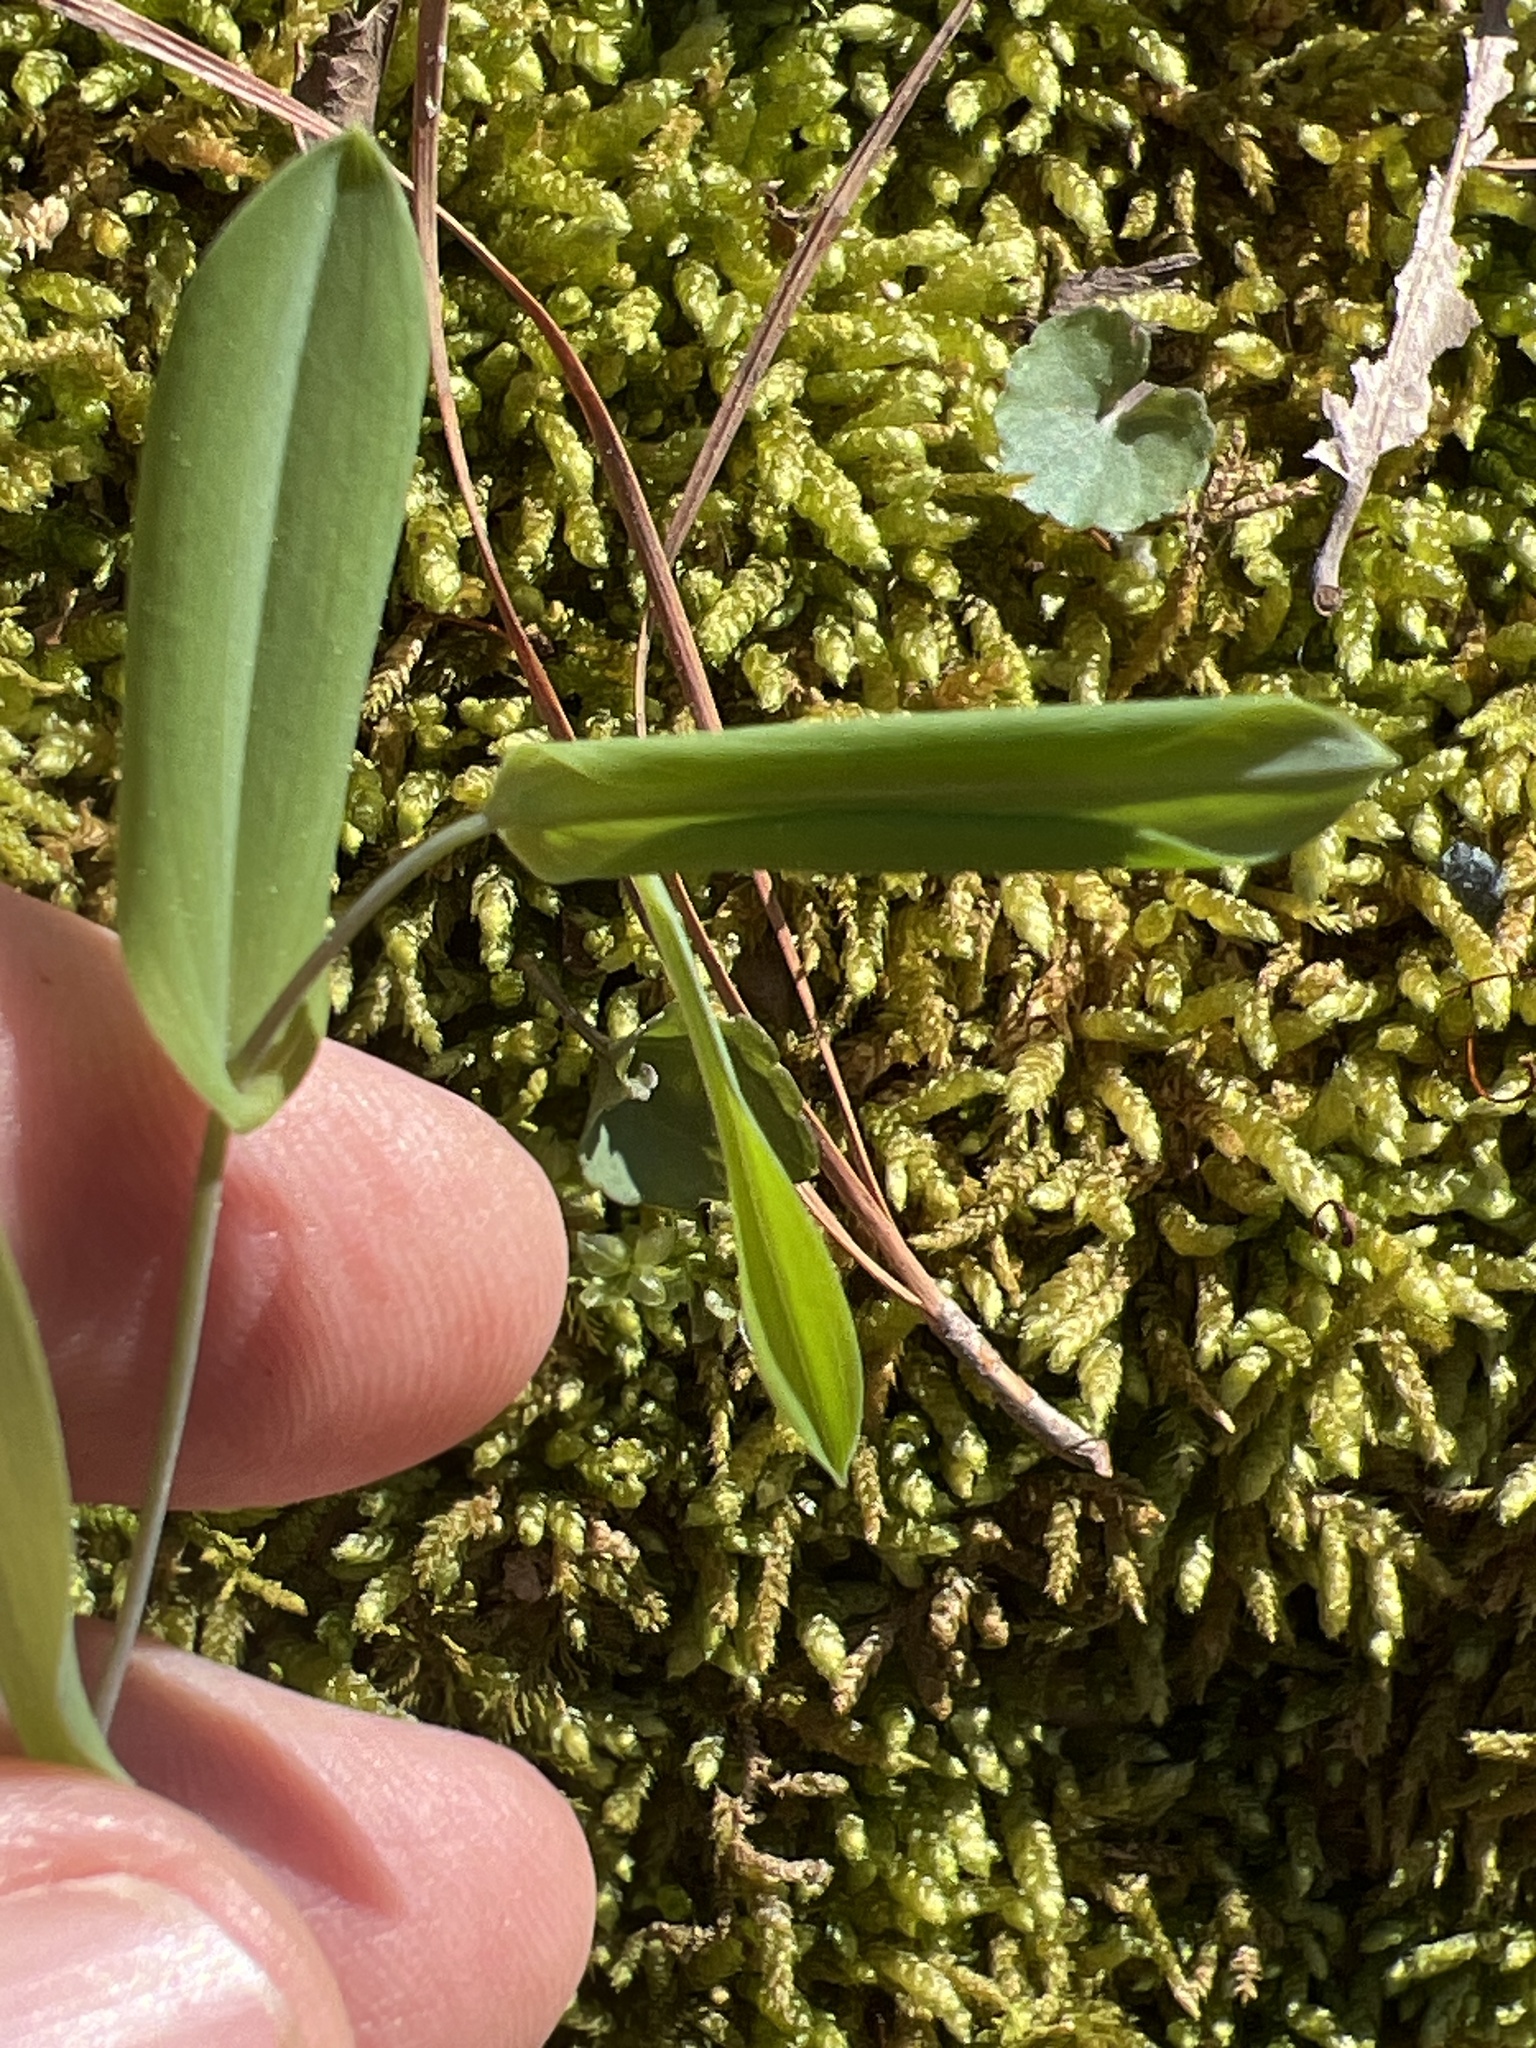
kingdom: Plantae
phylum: Tracheophyta
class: Liliopsida
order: Liliales
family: Colchicaceae
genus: Uvularia
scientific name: Uvularia perfoliata
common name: Perfoliate bellwort
